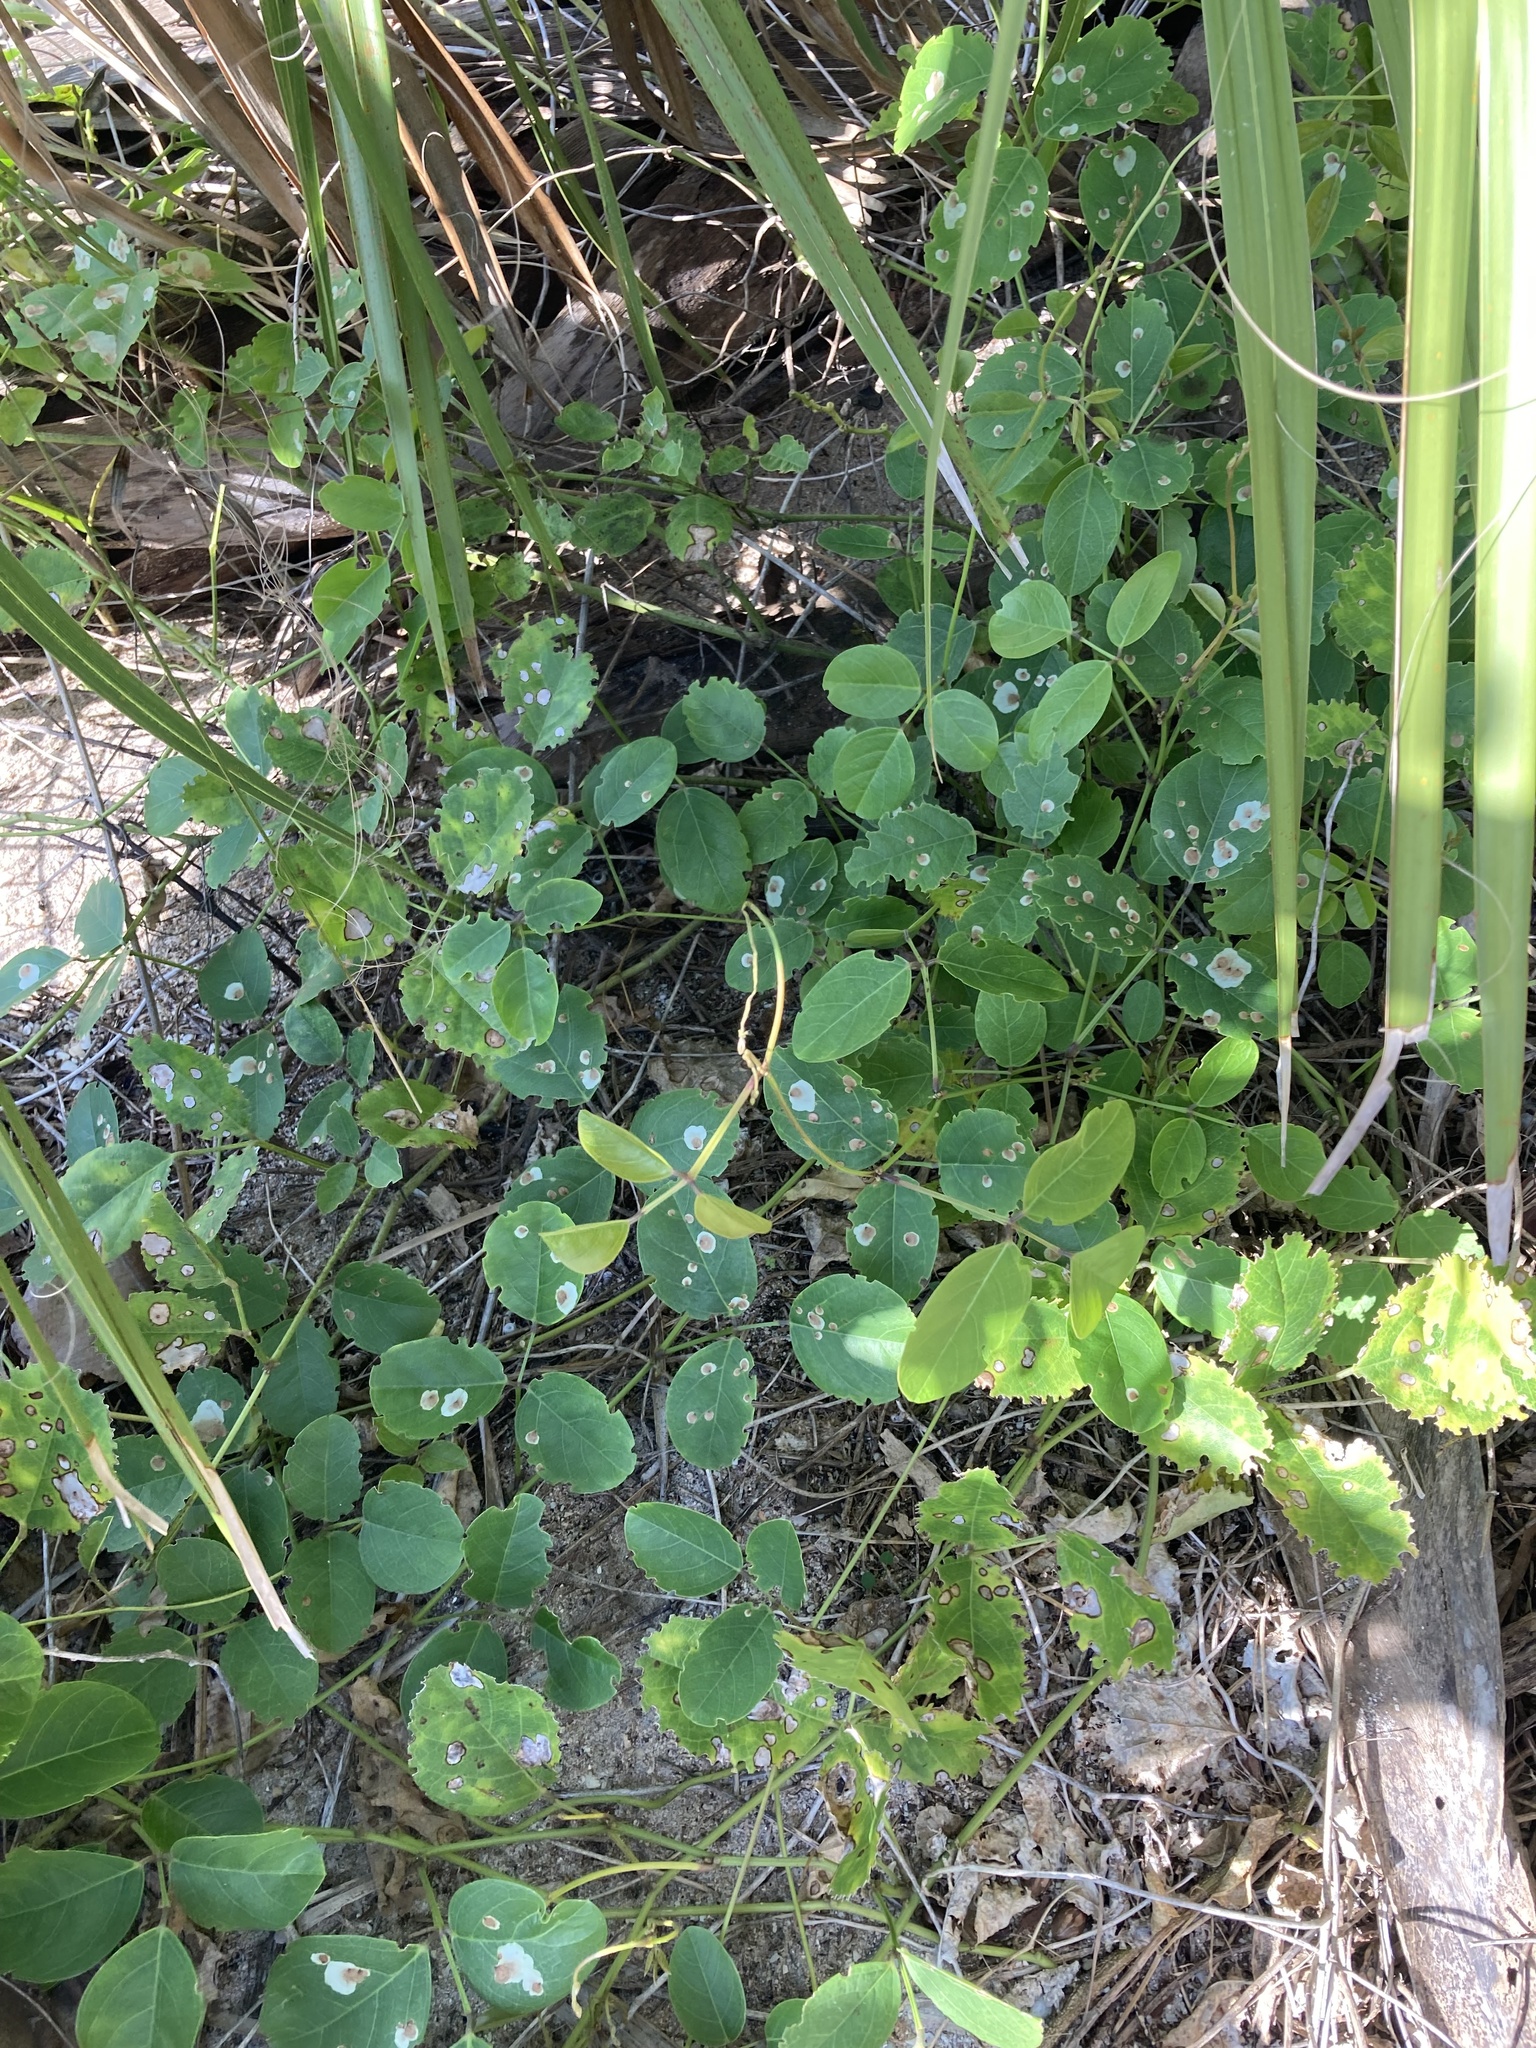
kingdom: Plantae
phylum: Tracheophyta
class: Magnoliopsida
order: Fabales
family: Fabaceae
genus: Canavalia
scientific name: Canavalia rosea
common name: Beach-bean
